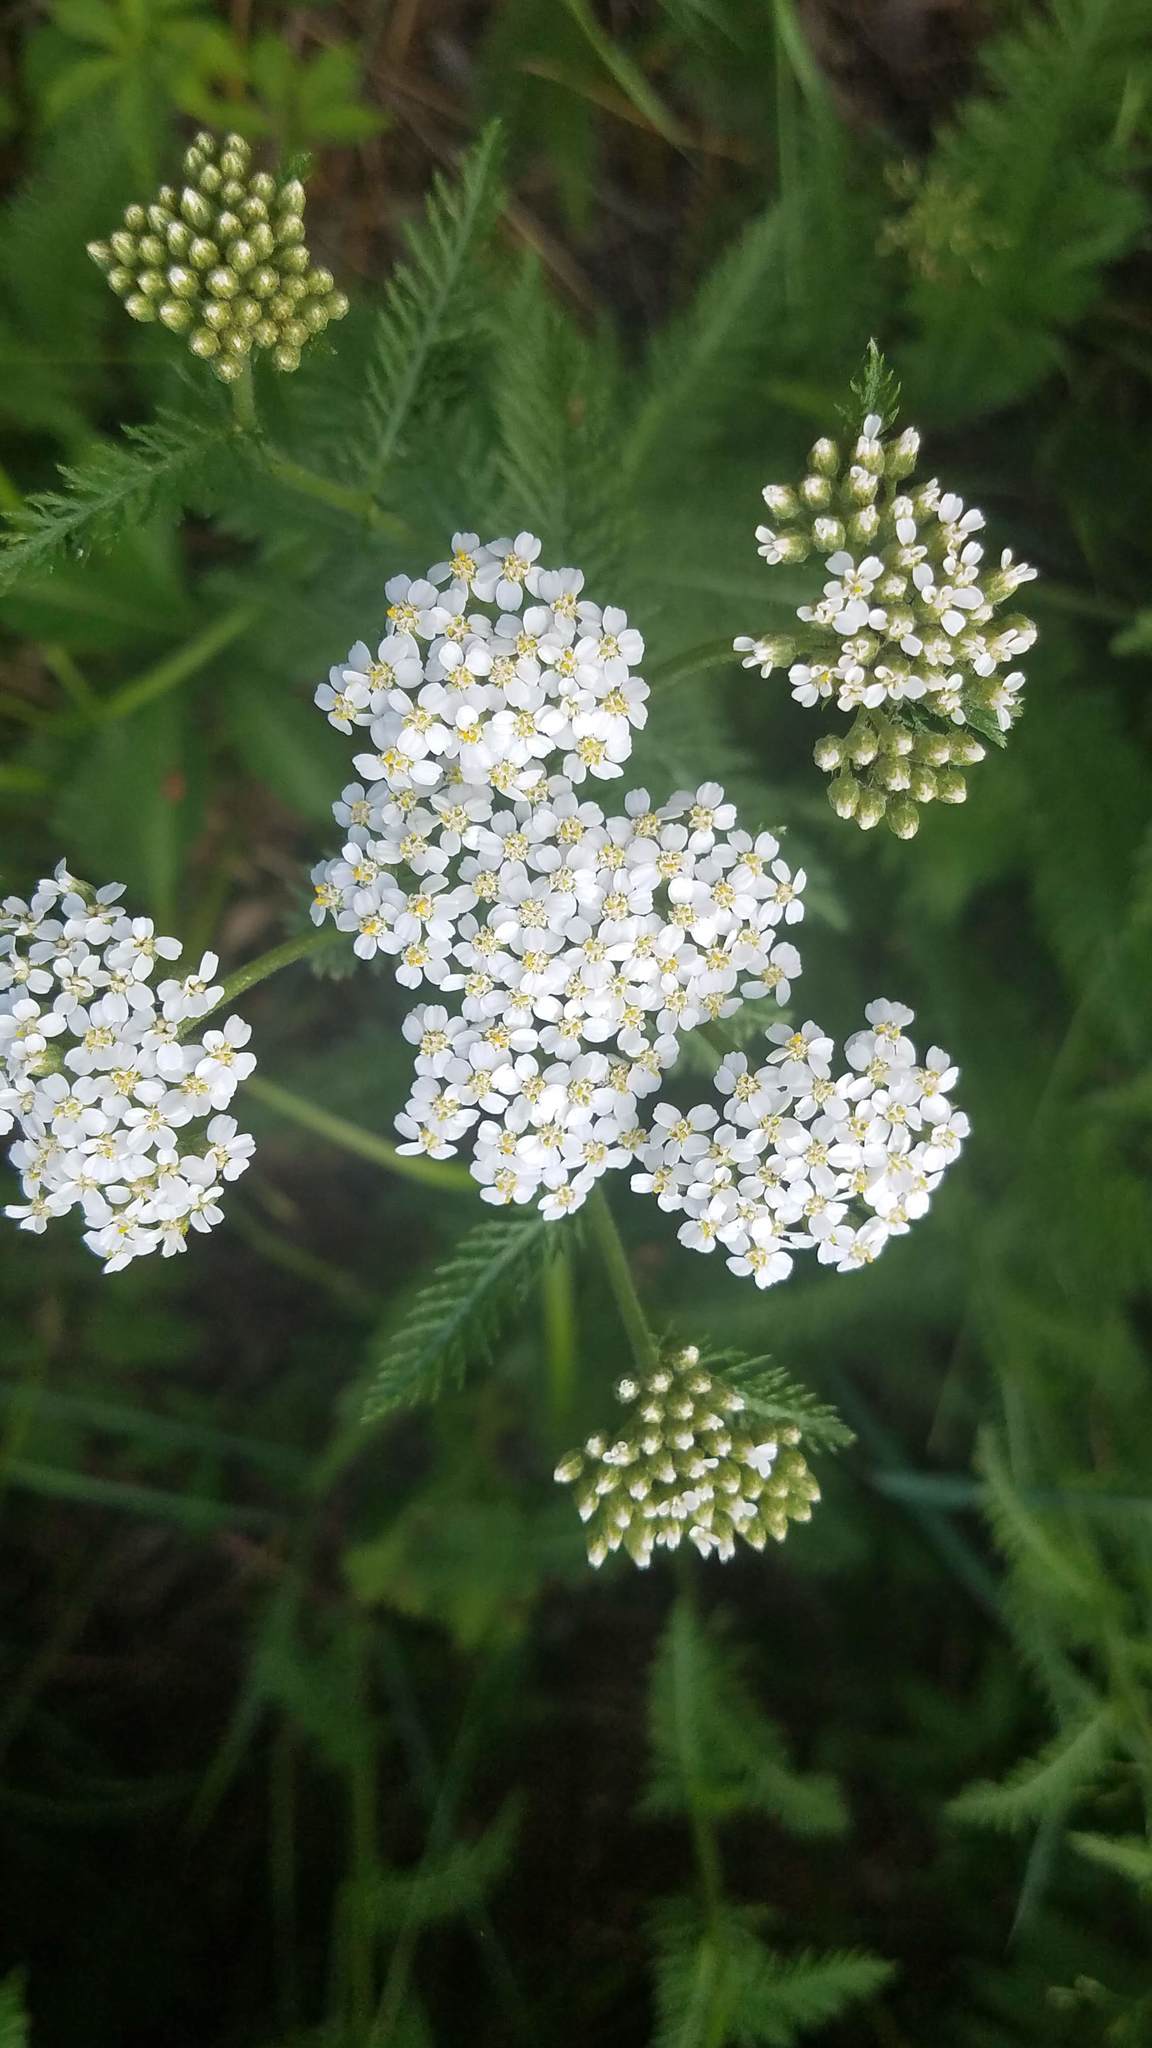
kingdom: Plantae
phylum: Tracheophyta
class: Magnoliopsida
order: Asterales
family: Asteraceae
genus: Achillea
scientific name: Achillea millefolium
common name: Yarrow
